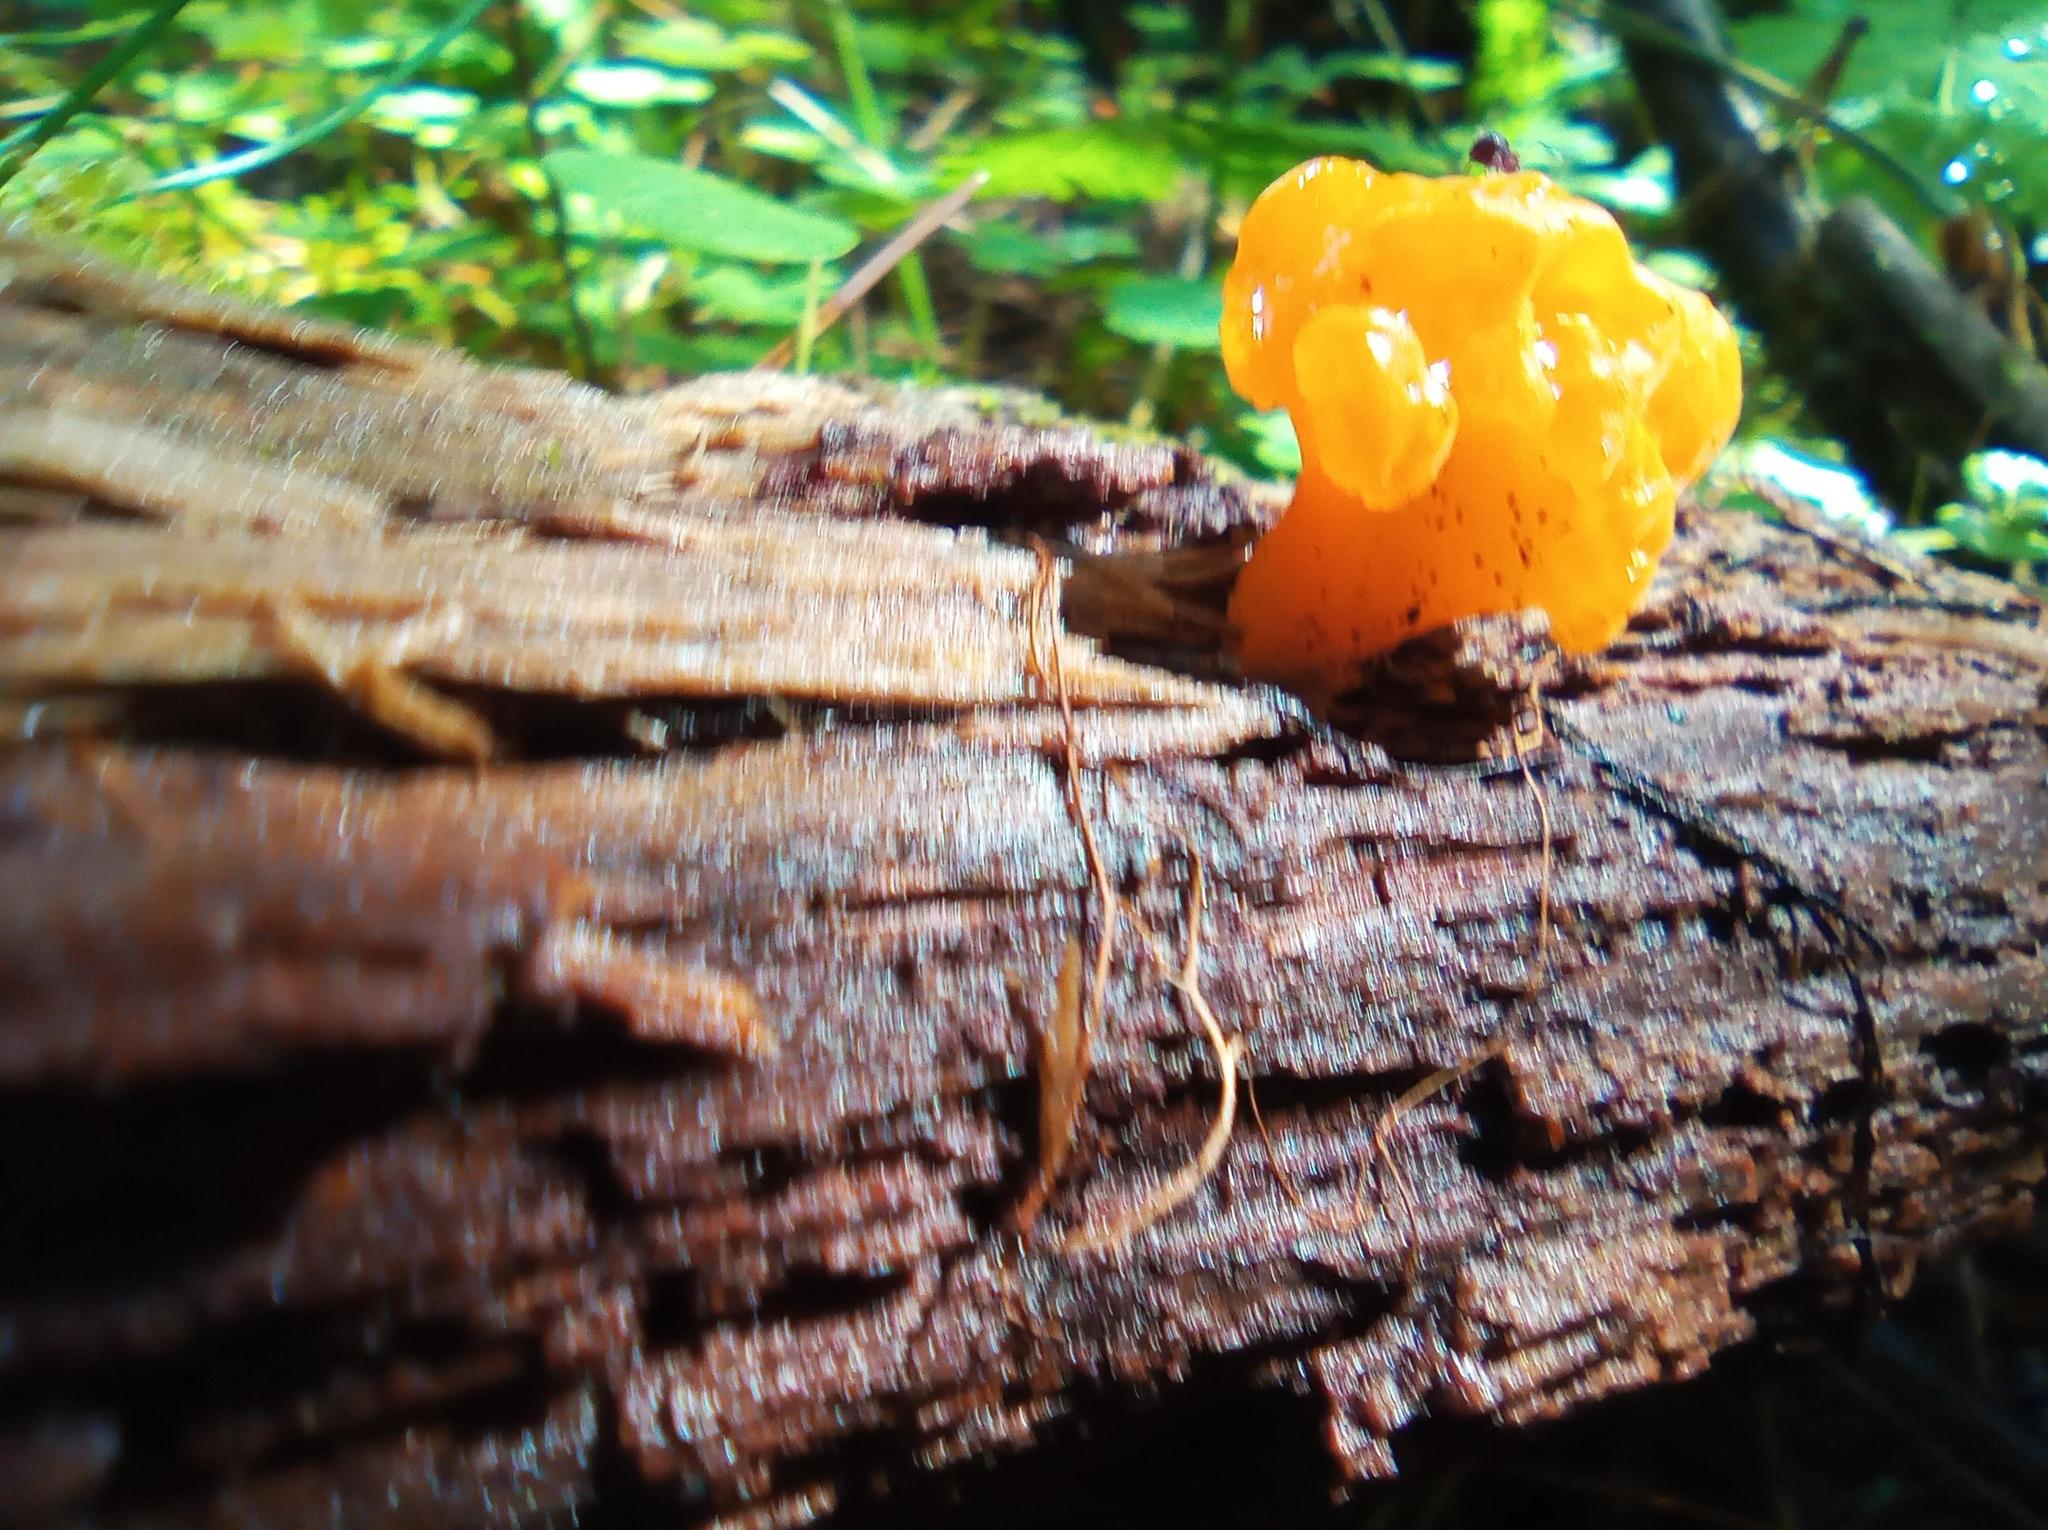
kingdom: Fungi
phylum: Basidiomycota
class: Dacrymycetes
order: Dacrymycetales
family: Dacrymycetaceae
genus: Dacrymyces
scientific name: Dacrymyces chrysospermus
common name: Orange jelly spot
